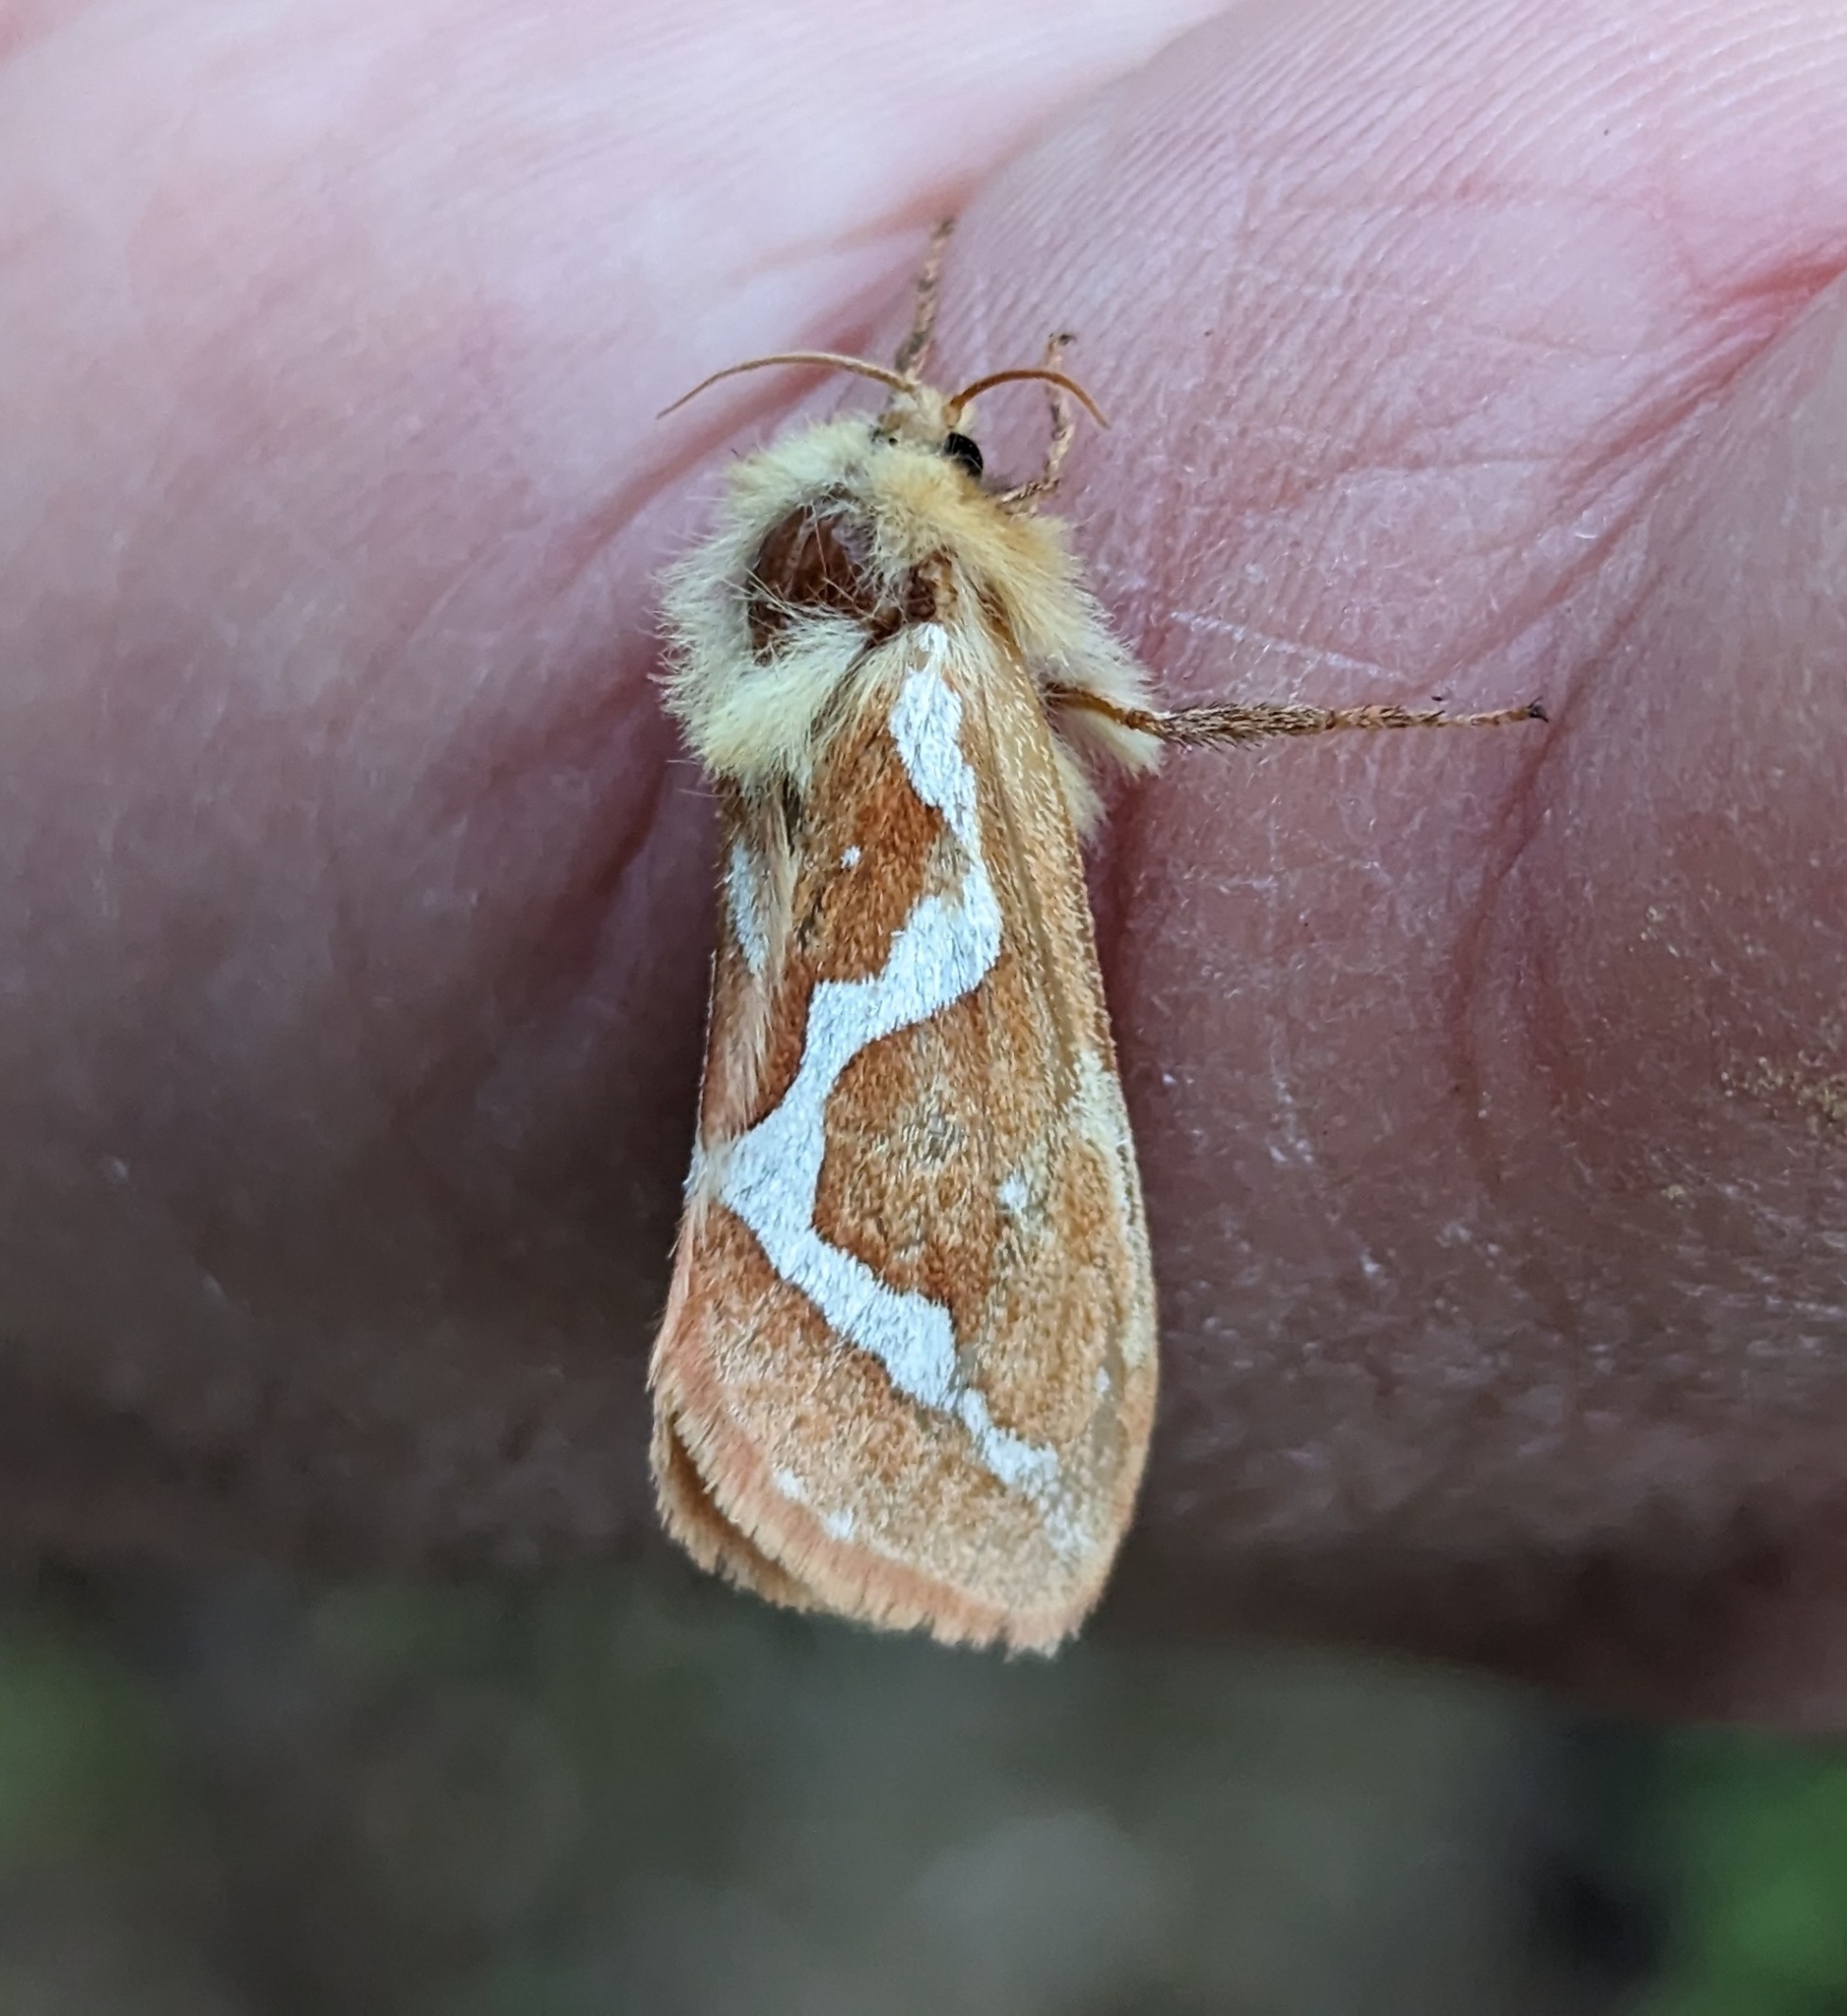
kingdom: Animalia
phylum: Arthropoda
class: Insecta
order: Lepidoptera
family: Hepialidae
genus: Gazoryctra
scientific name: Gazoryctra novigannus
